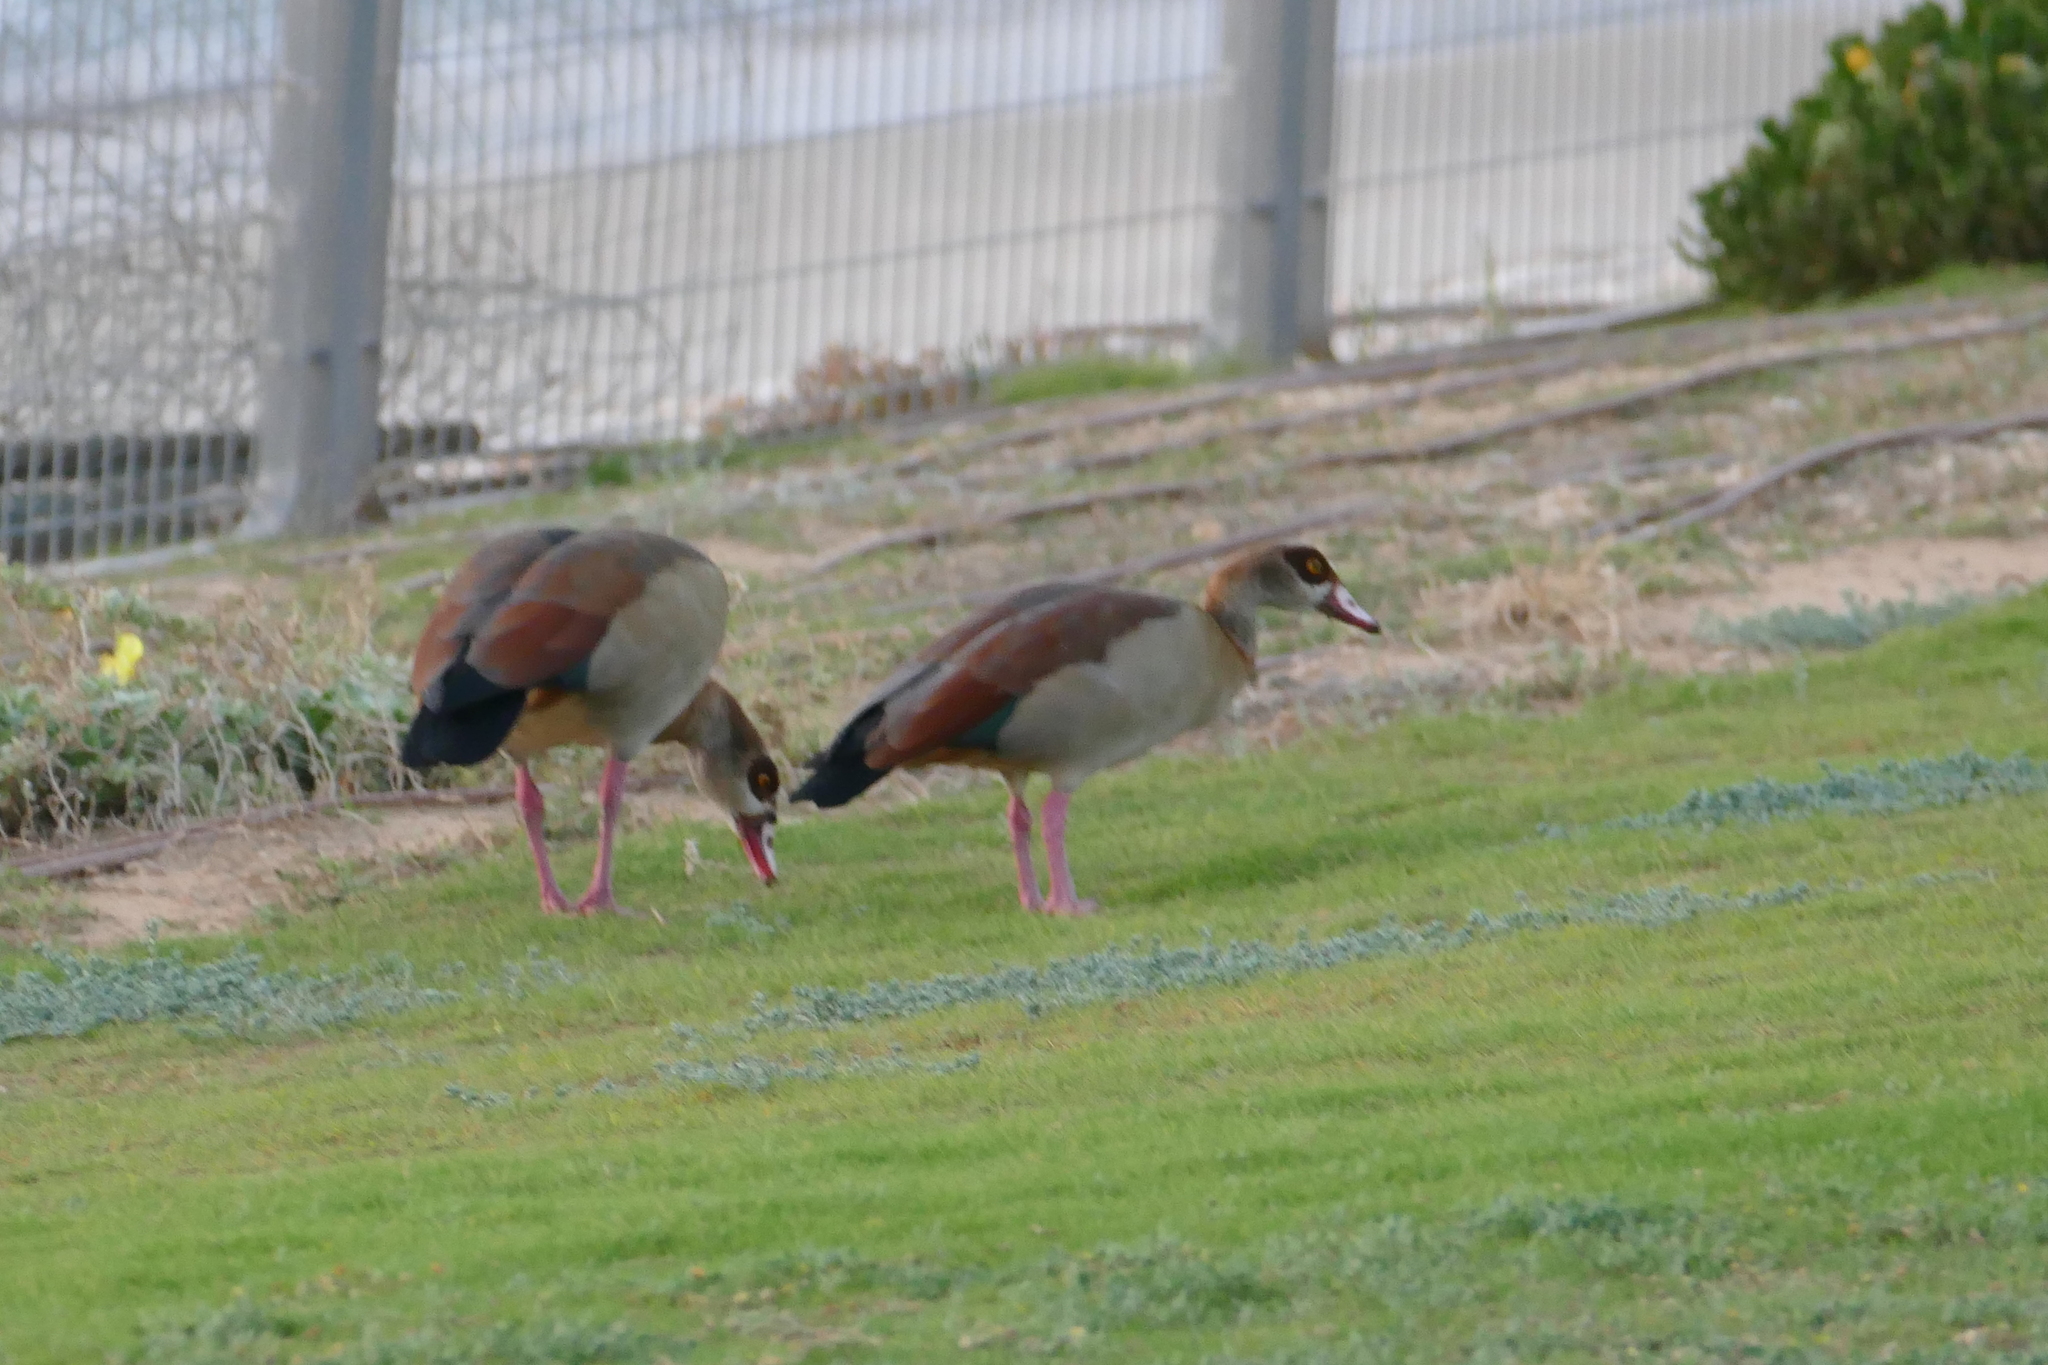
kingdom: Animalia
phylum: Chordata
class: Aves
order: Anseriformes
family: Anatidae
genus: Alopochen
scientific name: Alopochen aegyptiaca
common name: Egyptian goose
